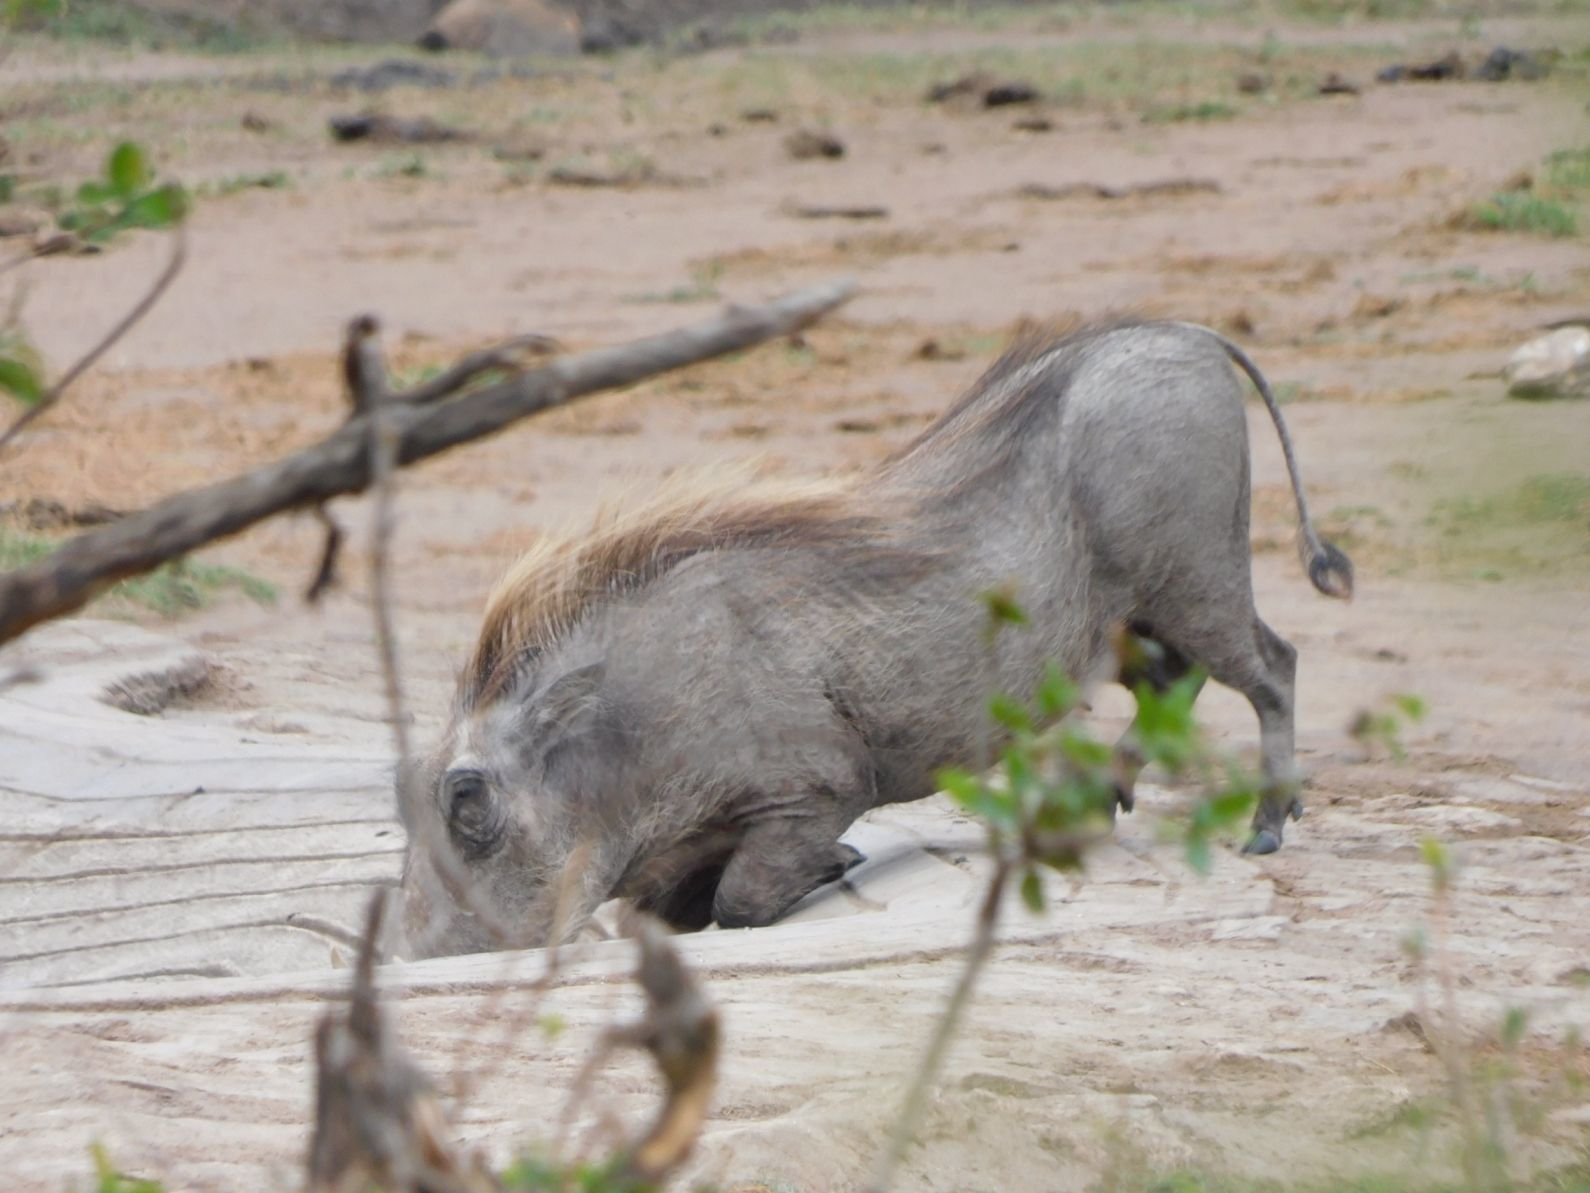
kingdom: Animalia
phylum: Chordata
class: Mammalia
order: Artiodactyla
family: Suidae
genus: Phacochoerus
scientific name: Phacochoerus africanus
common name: Common warthog
